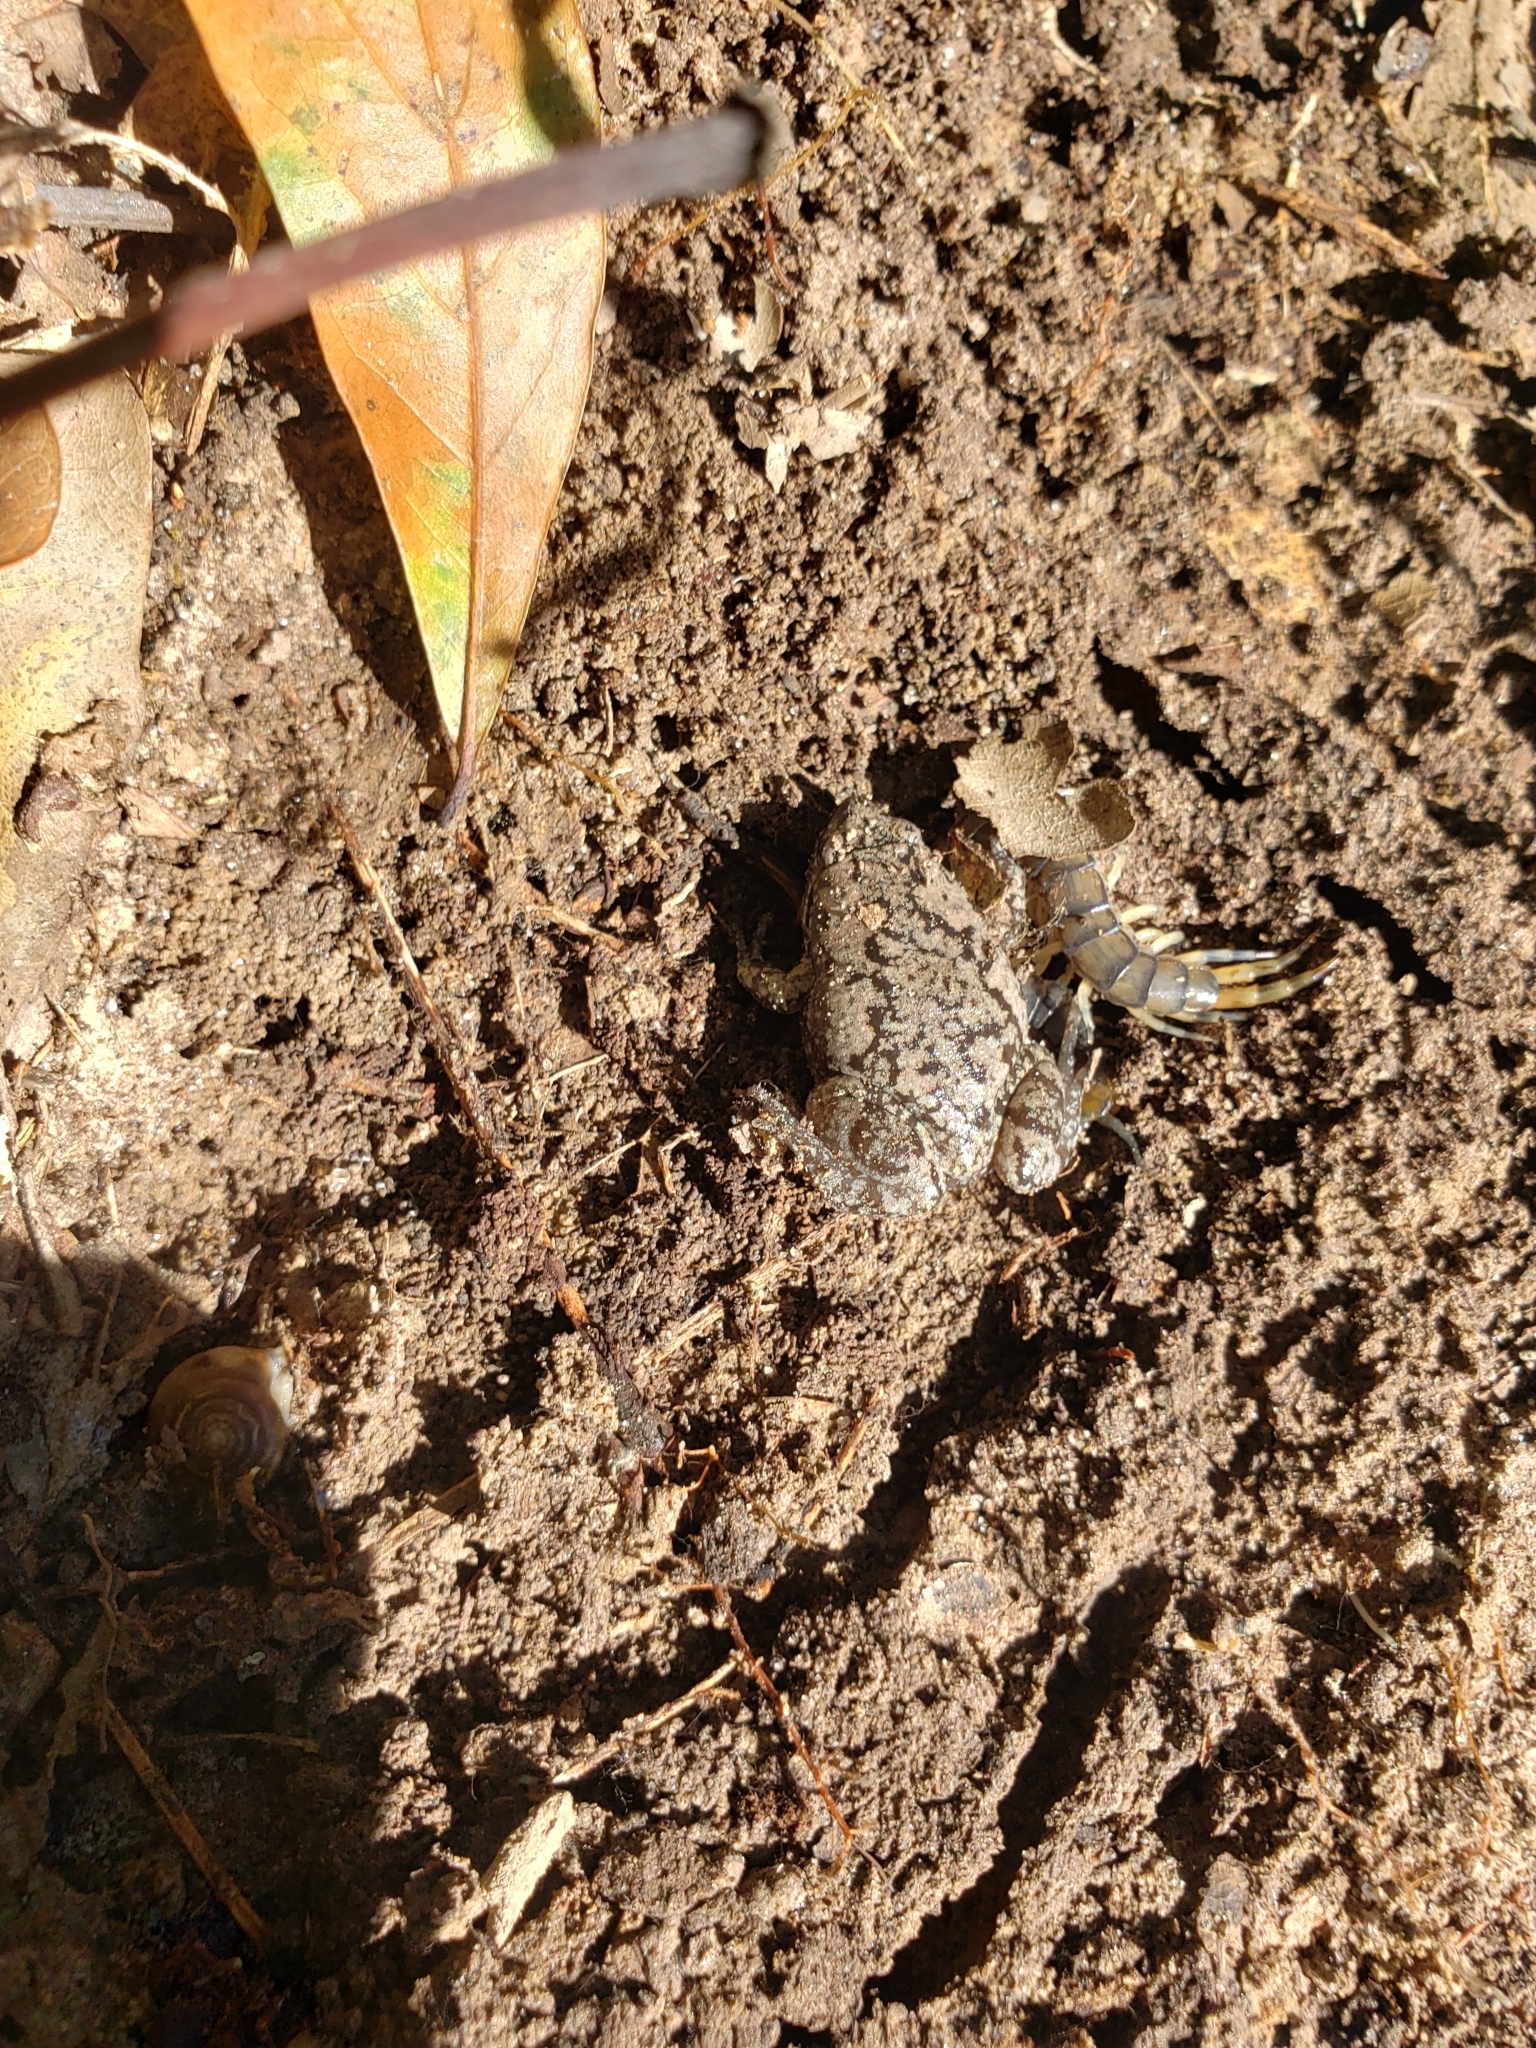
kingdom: Animalia
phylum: Chordata
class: Amphibia
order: Anura
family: Microhylidae
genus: Gastrophryne
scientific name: Gastrophryne carolinensis
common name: Eastern narrowmouth toad
